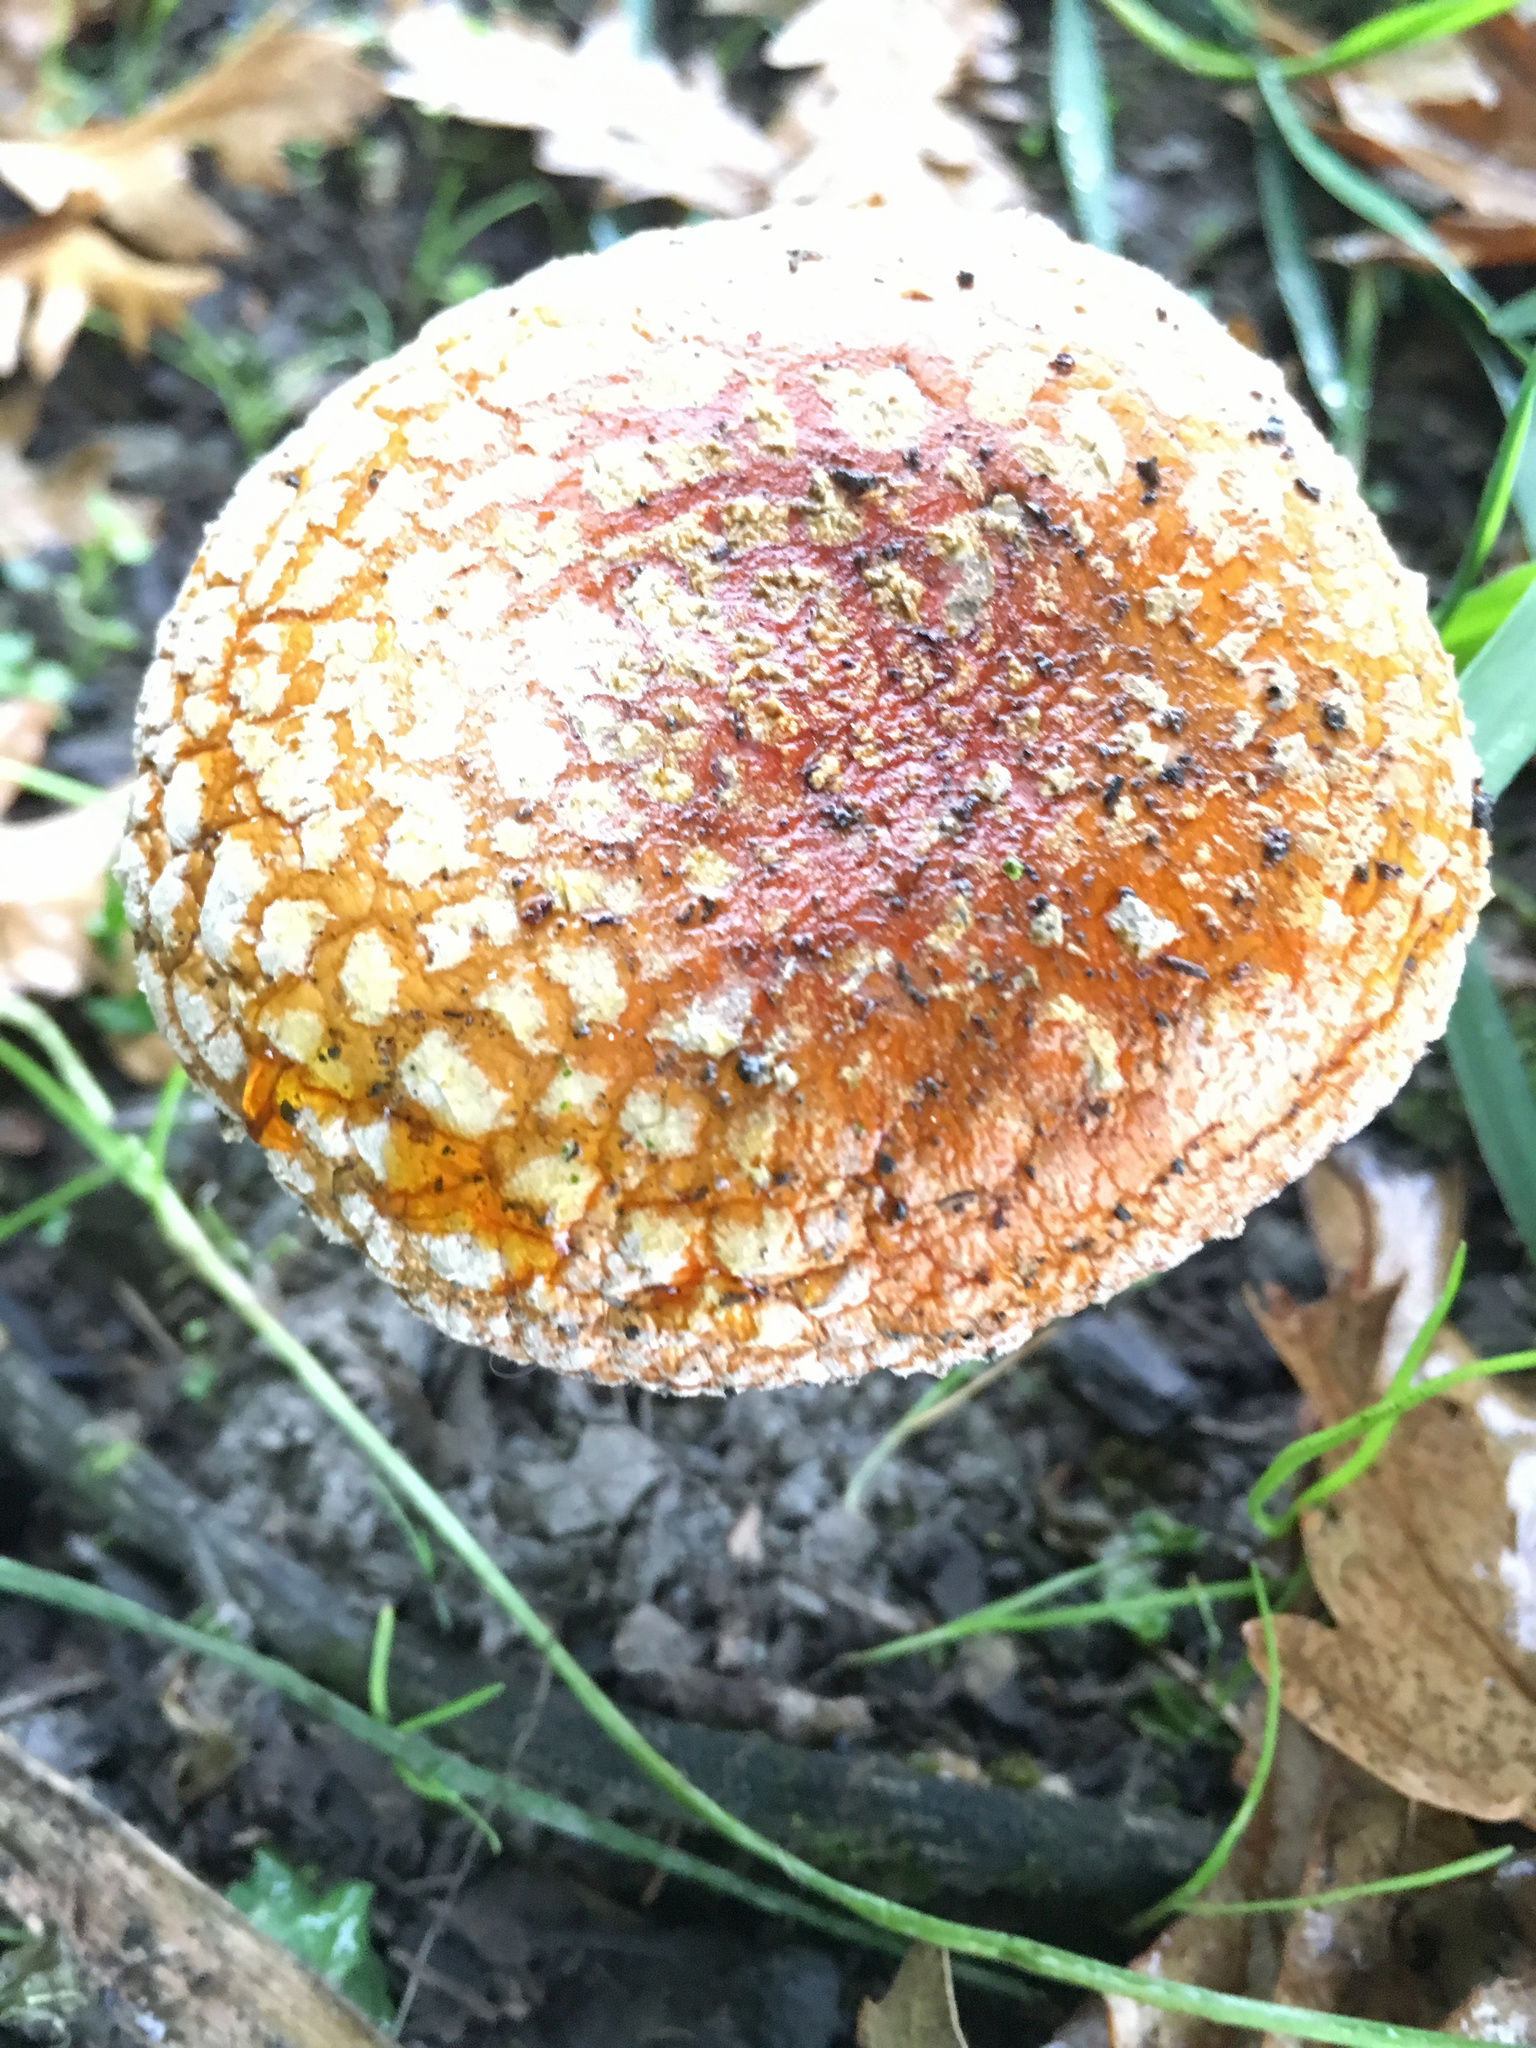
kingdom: Fungi
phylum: Basidiomycota
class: Agaricomycetes
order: Agaricales
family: Amanitaceae
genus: Amanita
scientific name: Amanita muscaria
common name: Fly agaric
